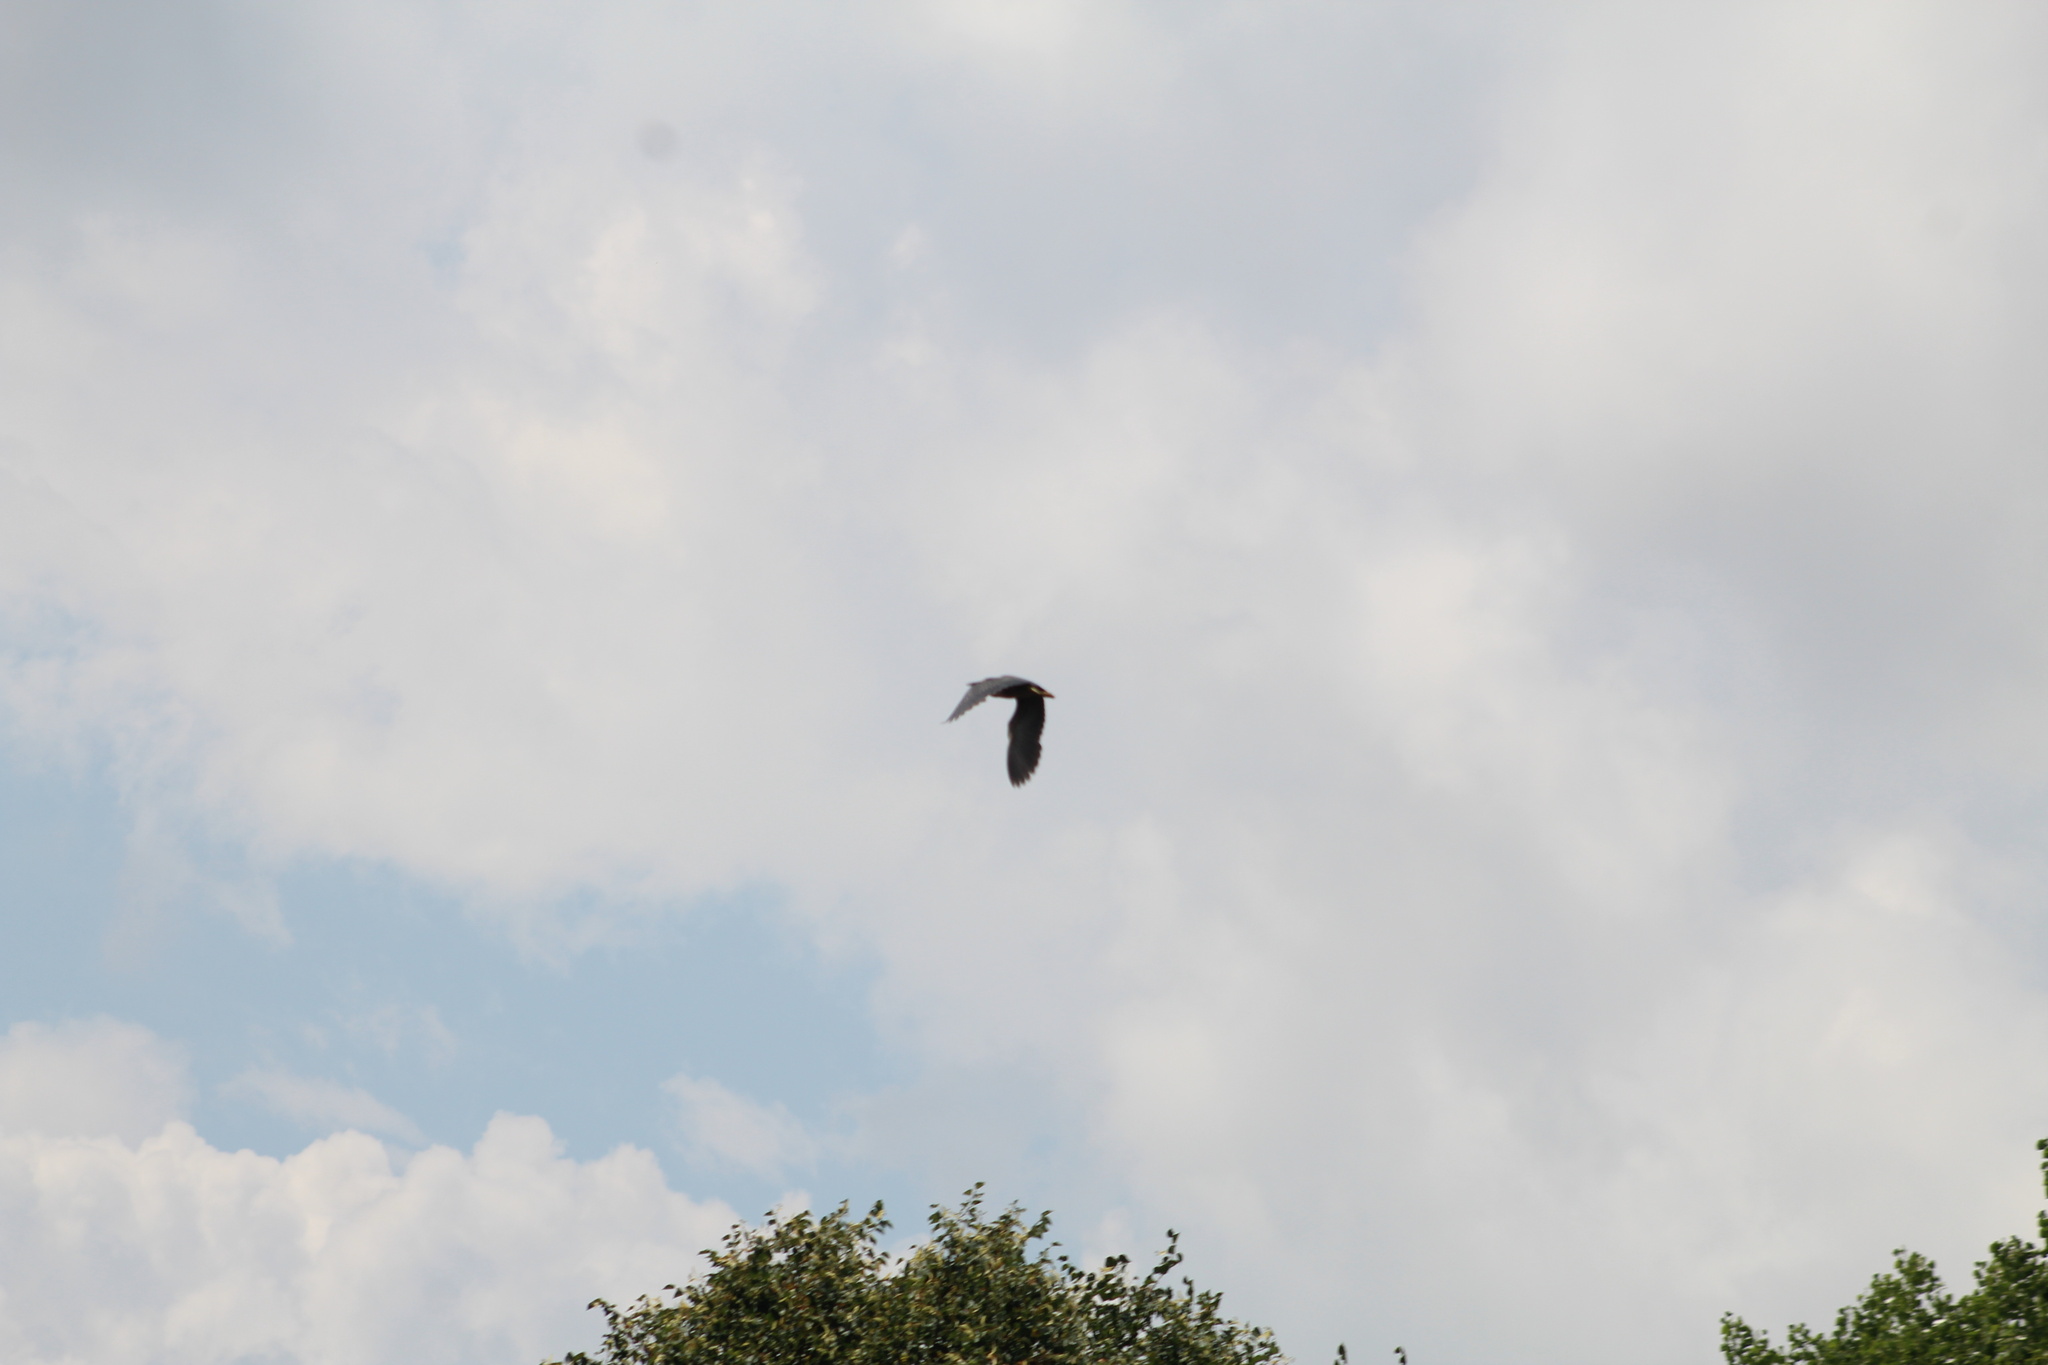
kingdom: Animalia
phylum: Chordata
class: Aves
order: Pelecaniformes
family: Ardeidae
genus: Butorides
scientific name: Butorides virescens
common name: Green heron
